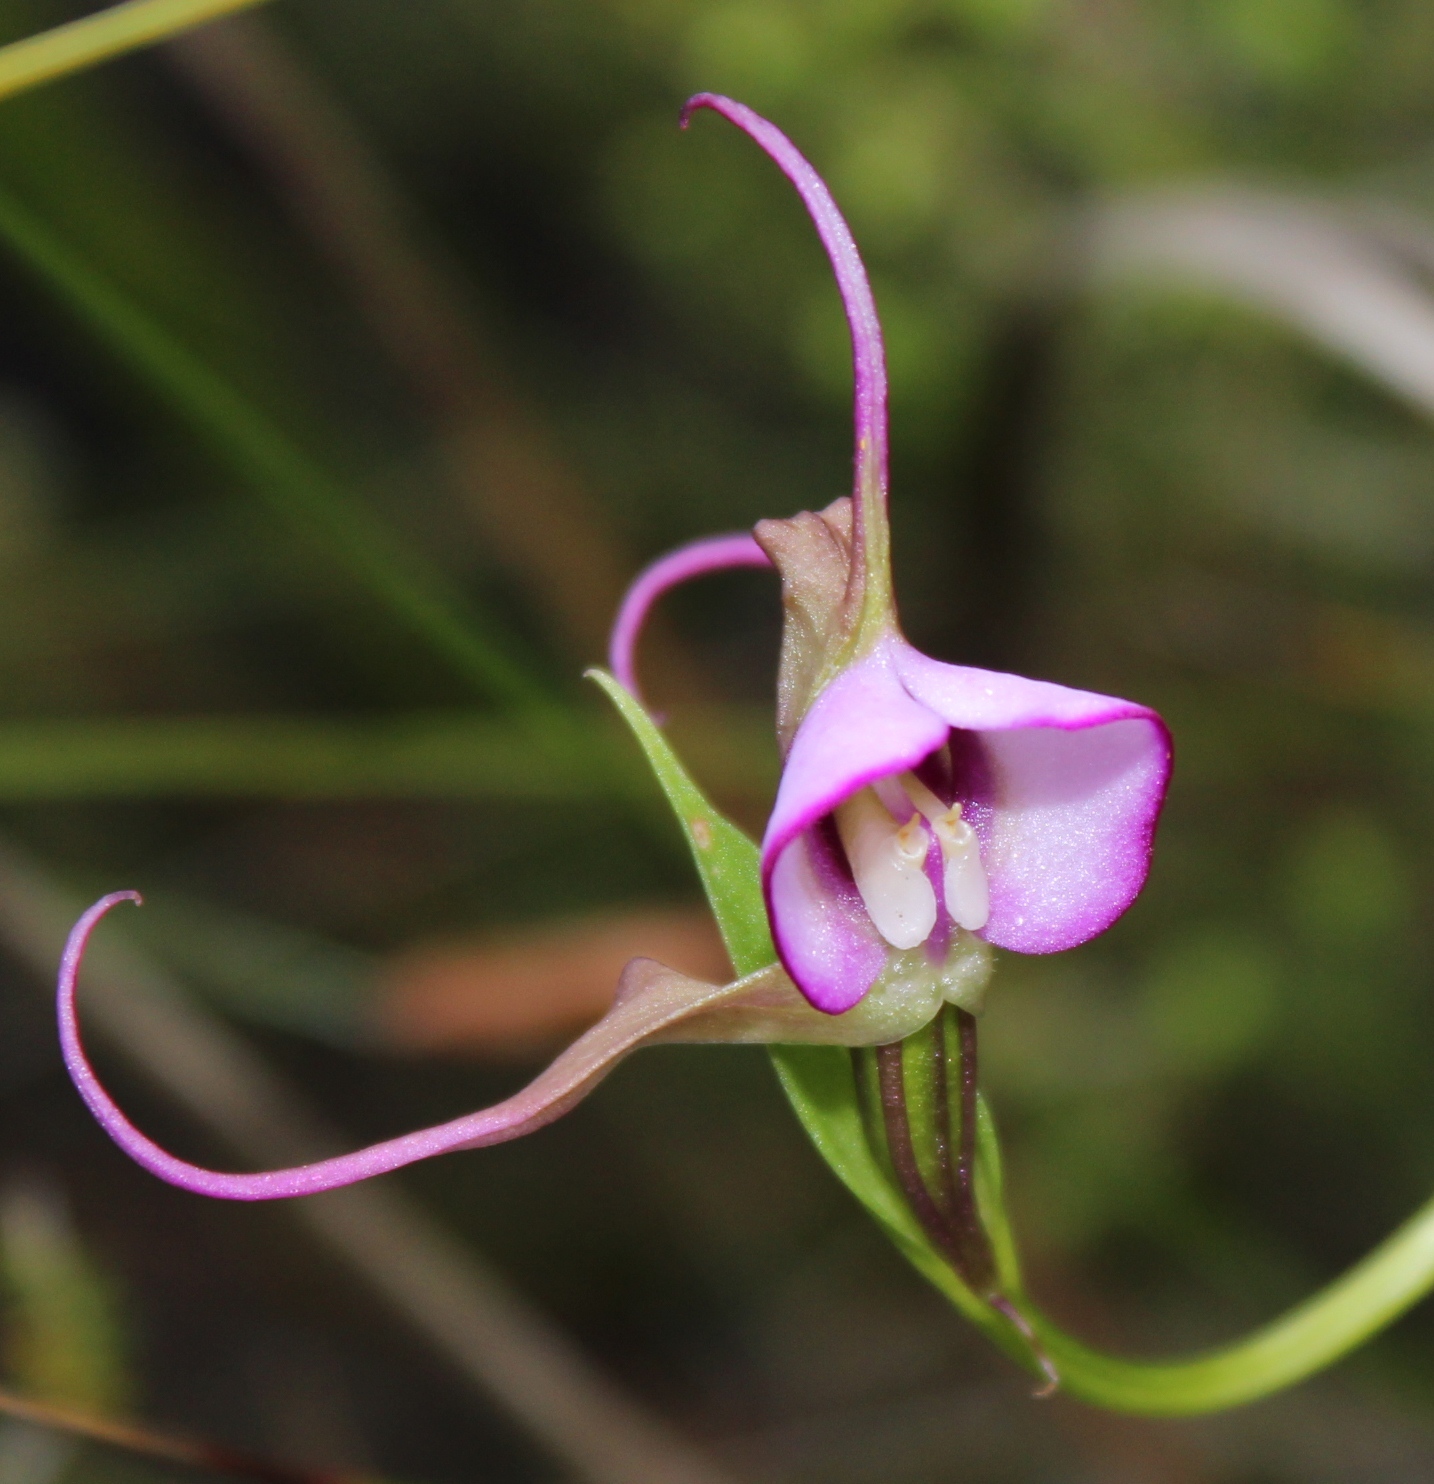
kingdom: Plantae
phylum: Tracheophyta
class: Liliopsida
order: Asparagales
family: Orchidaceae
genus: Disperis
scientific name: Disperis capensis
